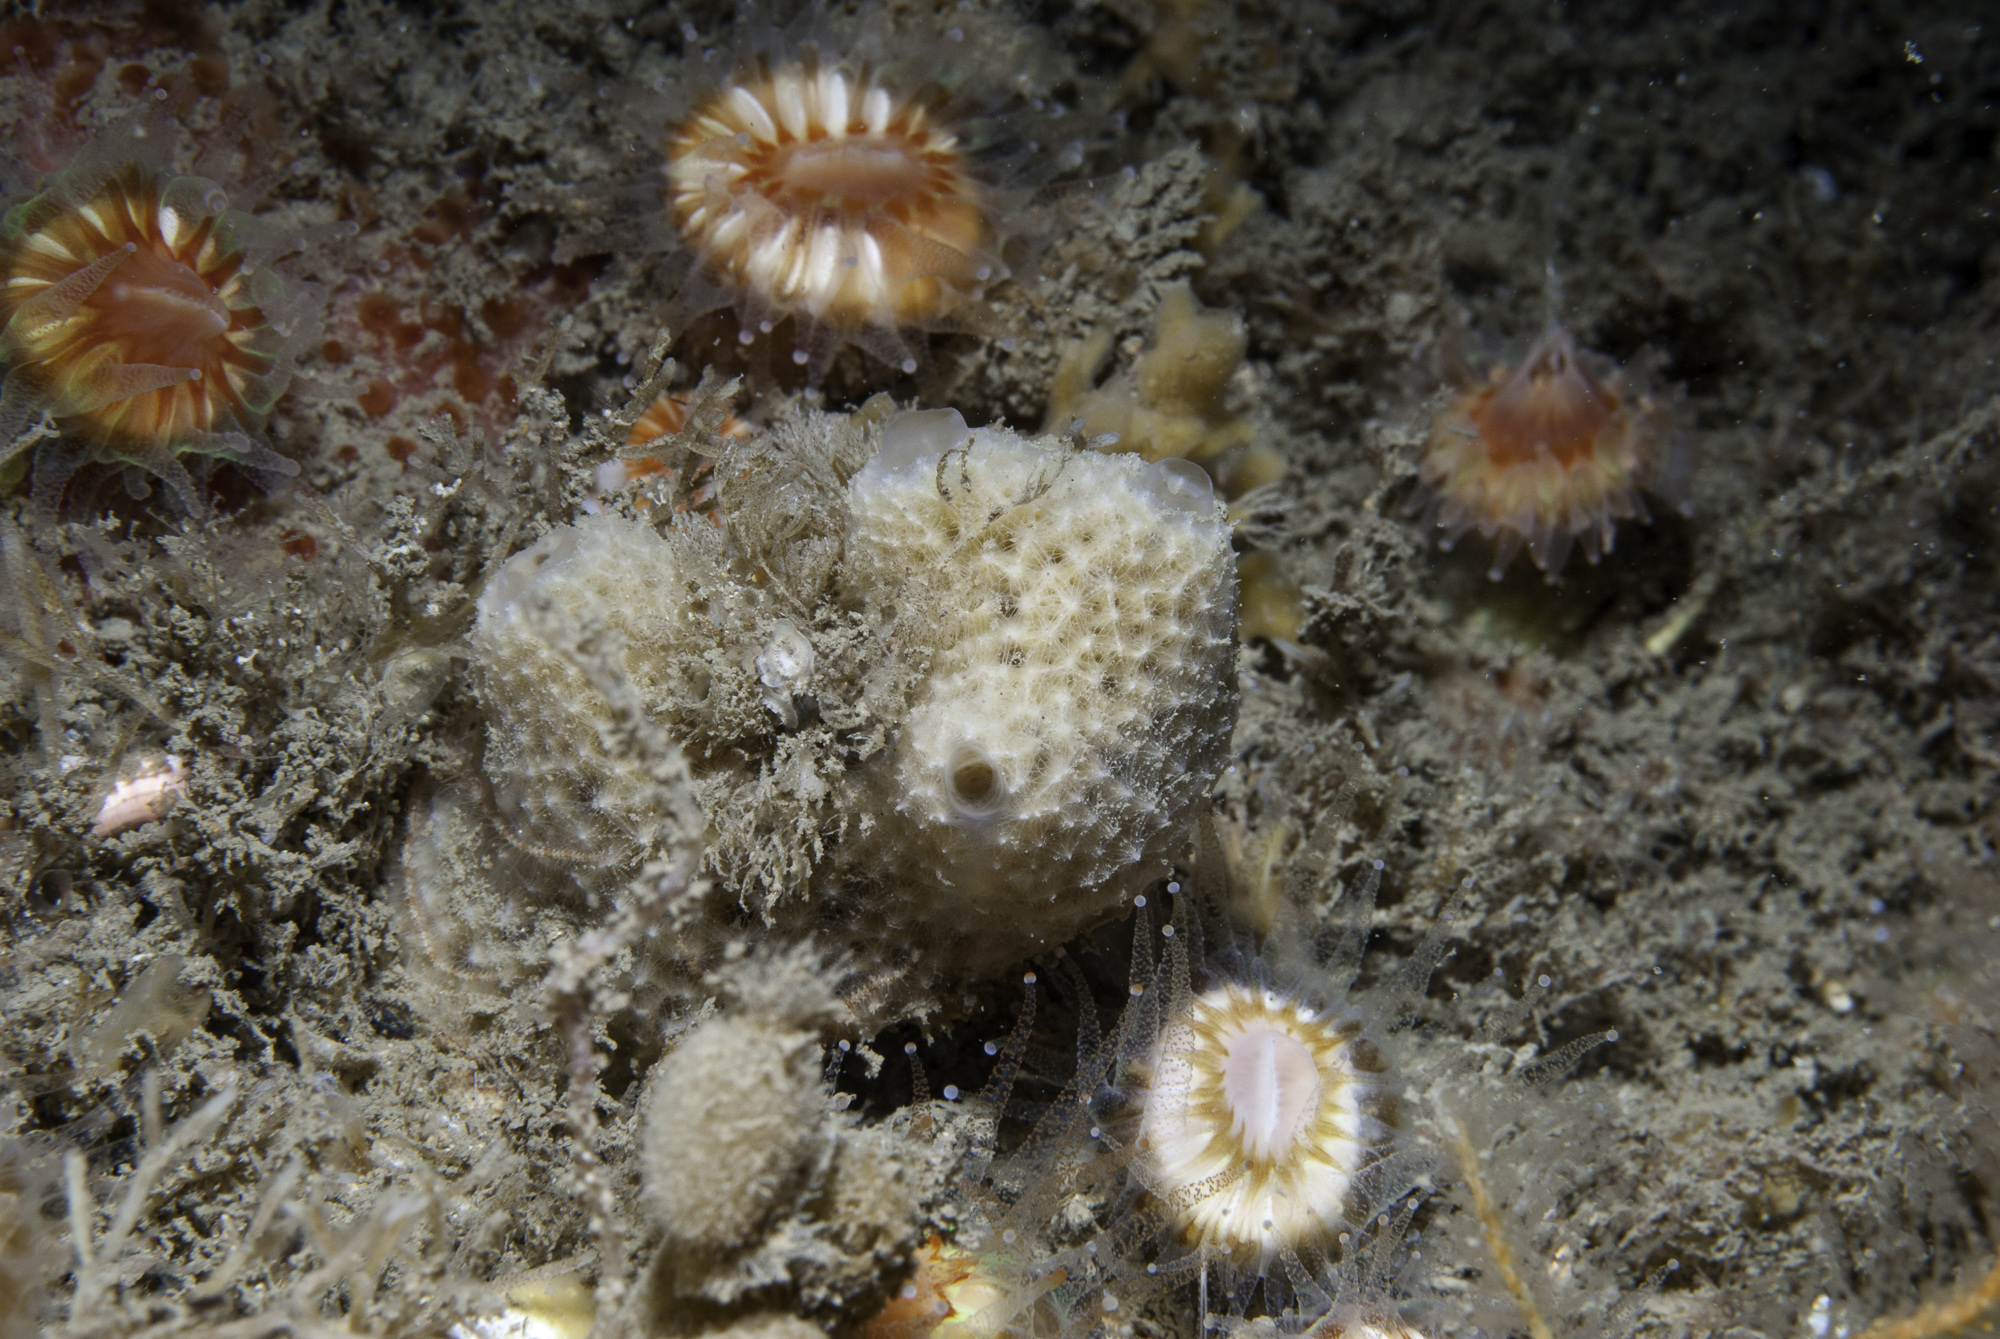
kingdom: Animalia
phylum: Porifera
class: Demospongiae
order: Dictyoceratida
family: Dysideidae
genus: Dysidea
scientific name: Dysidea fragilis
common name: Goosebump sponge
